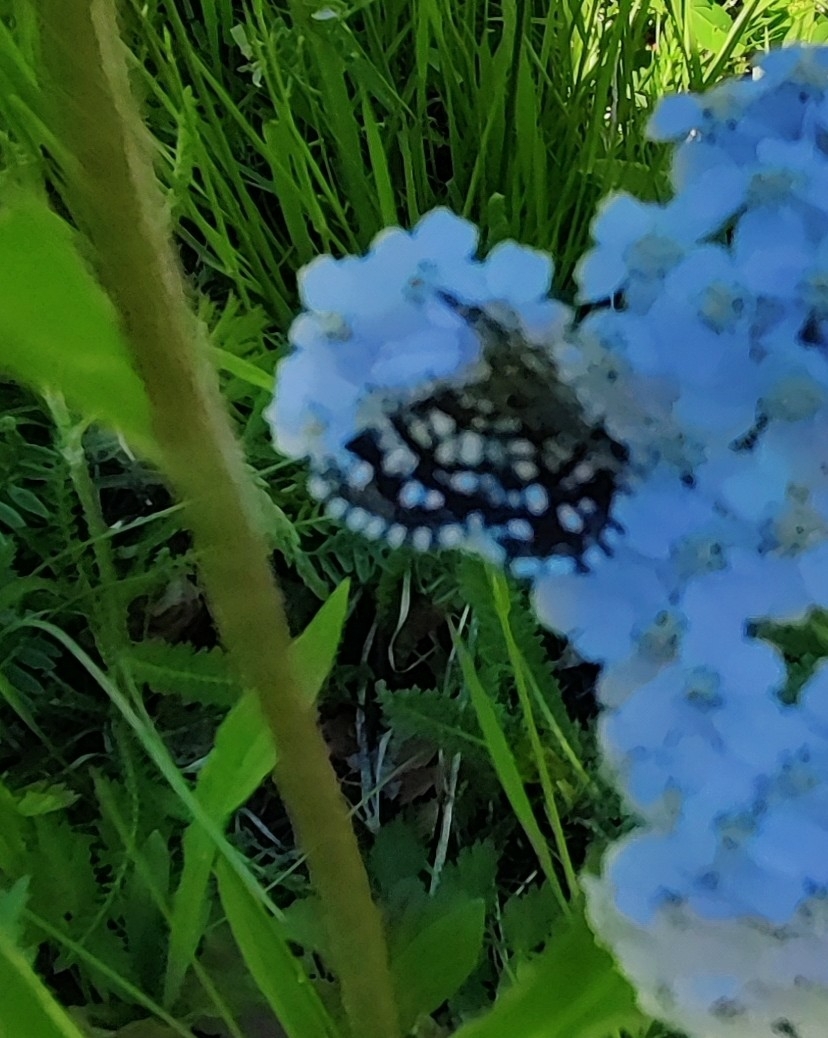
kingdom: Animalia
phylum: Arthropoda
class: Insecta
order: Lepidoptera
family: Geometridae
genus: Chiasmia
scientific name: Chiasmia clathrata
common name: Latticed heath
